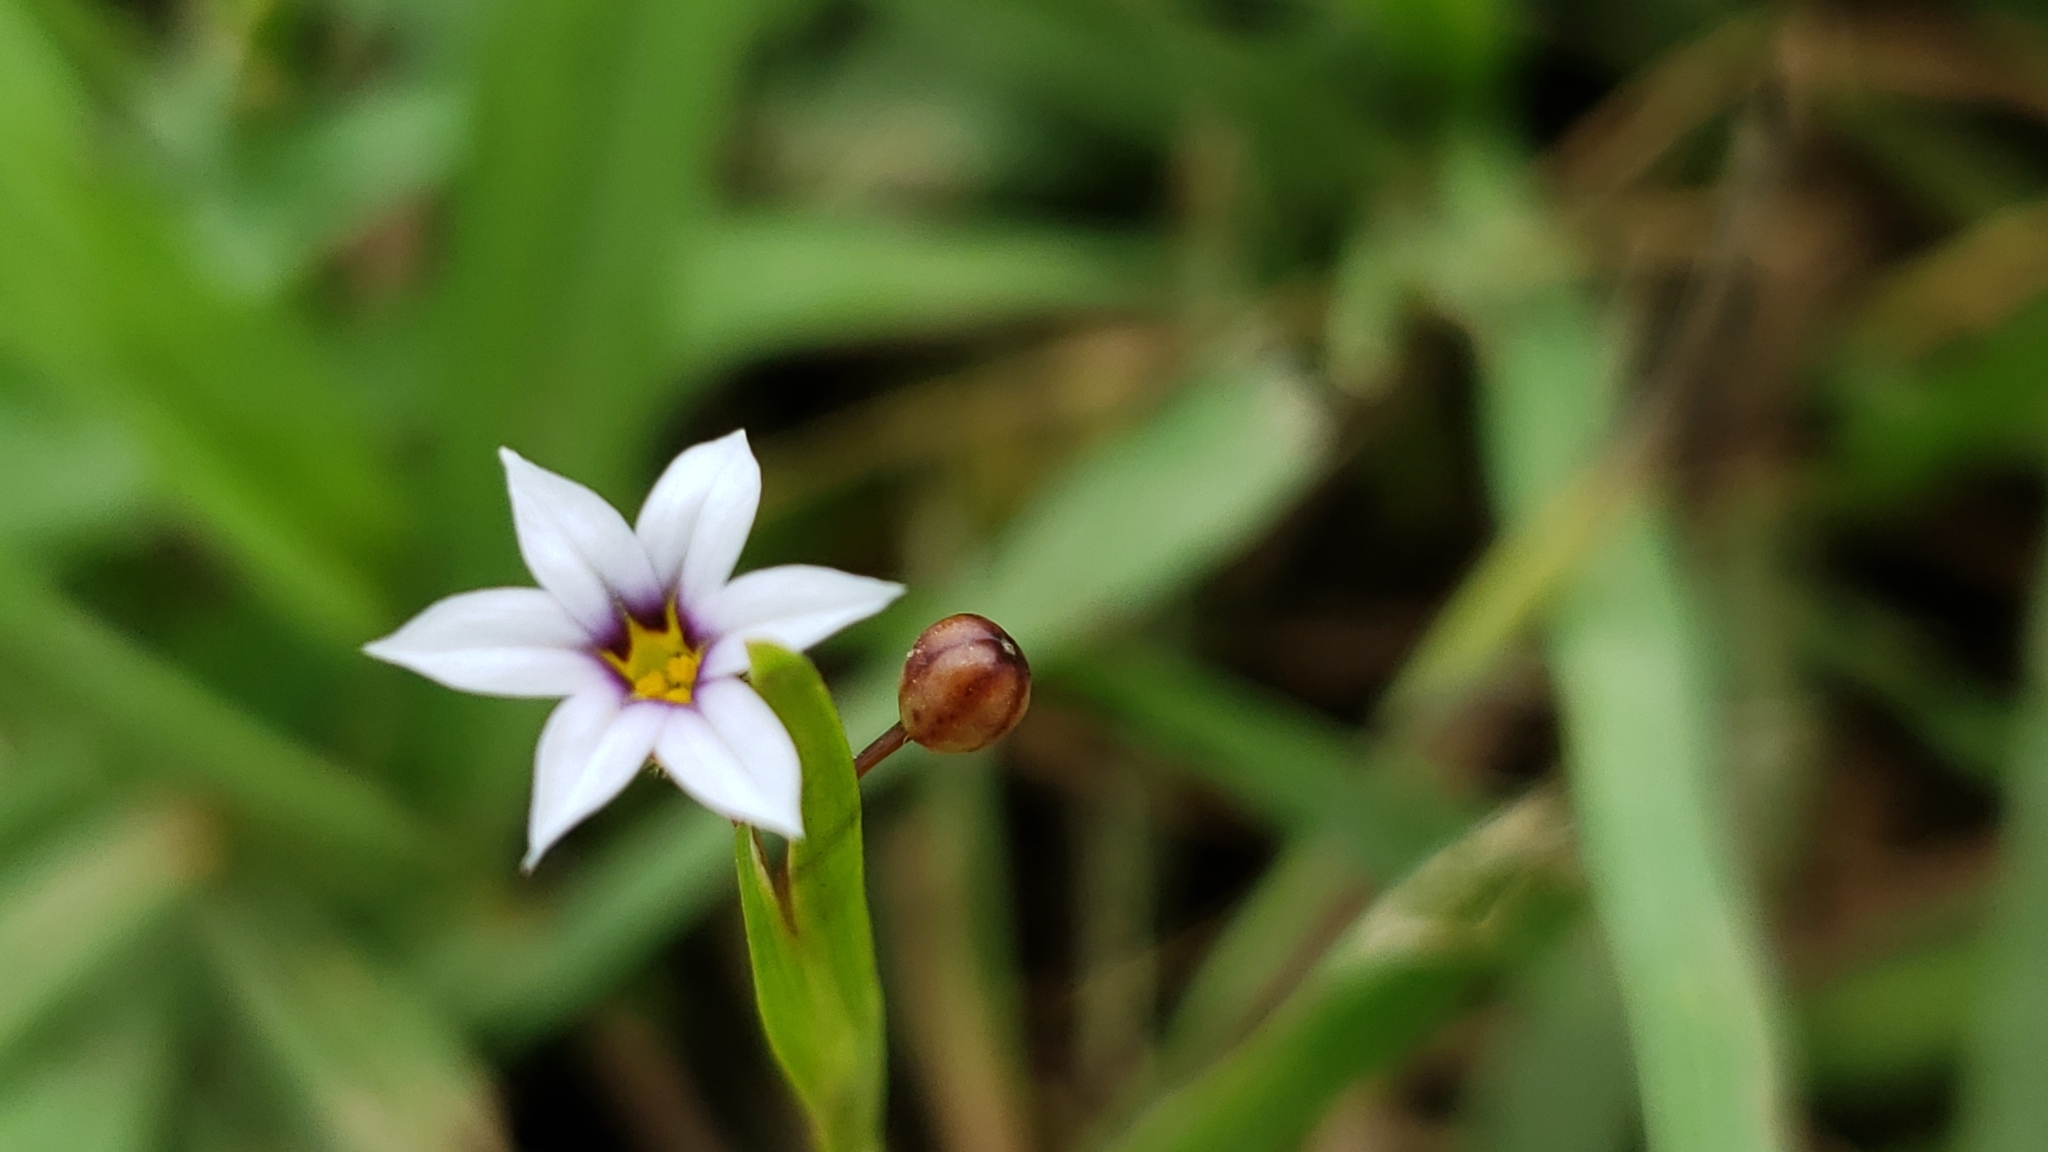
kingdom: Plantae
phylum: Tracheophyta
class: Liliopsida
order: Asparagales
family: Iridaceae
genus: Sisyrinchium
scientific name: Sisyrinchium micranthum
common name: Bermuda pigroot
